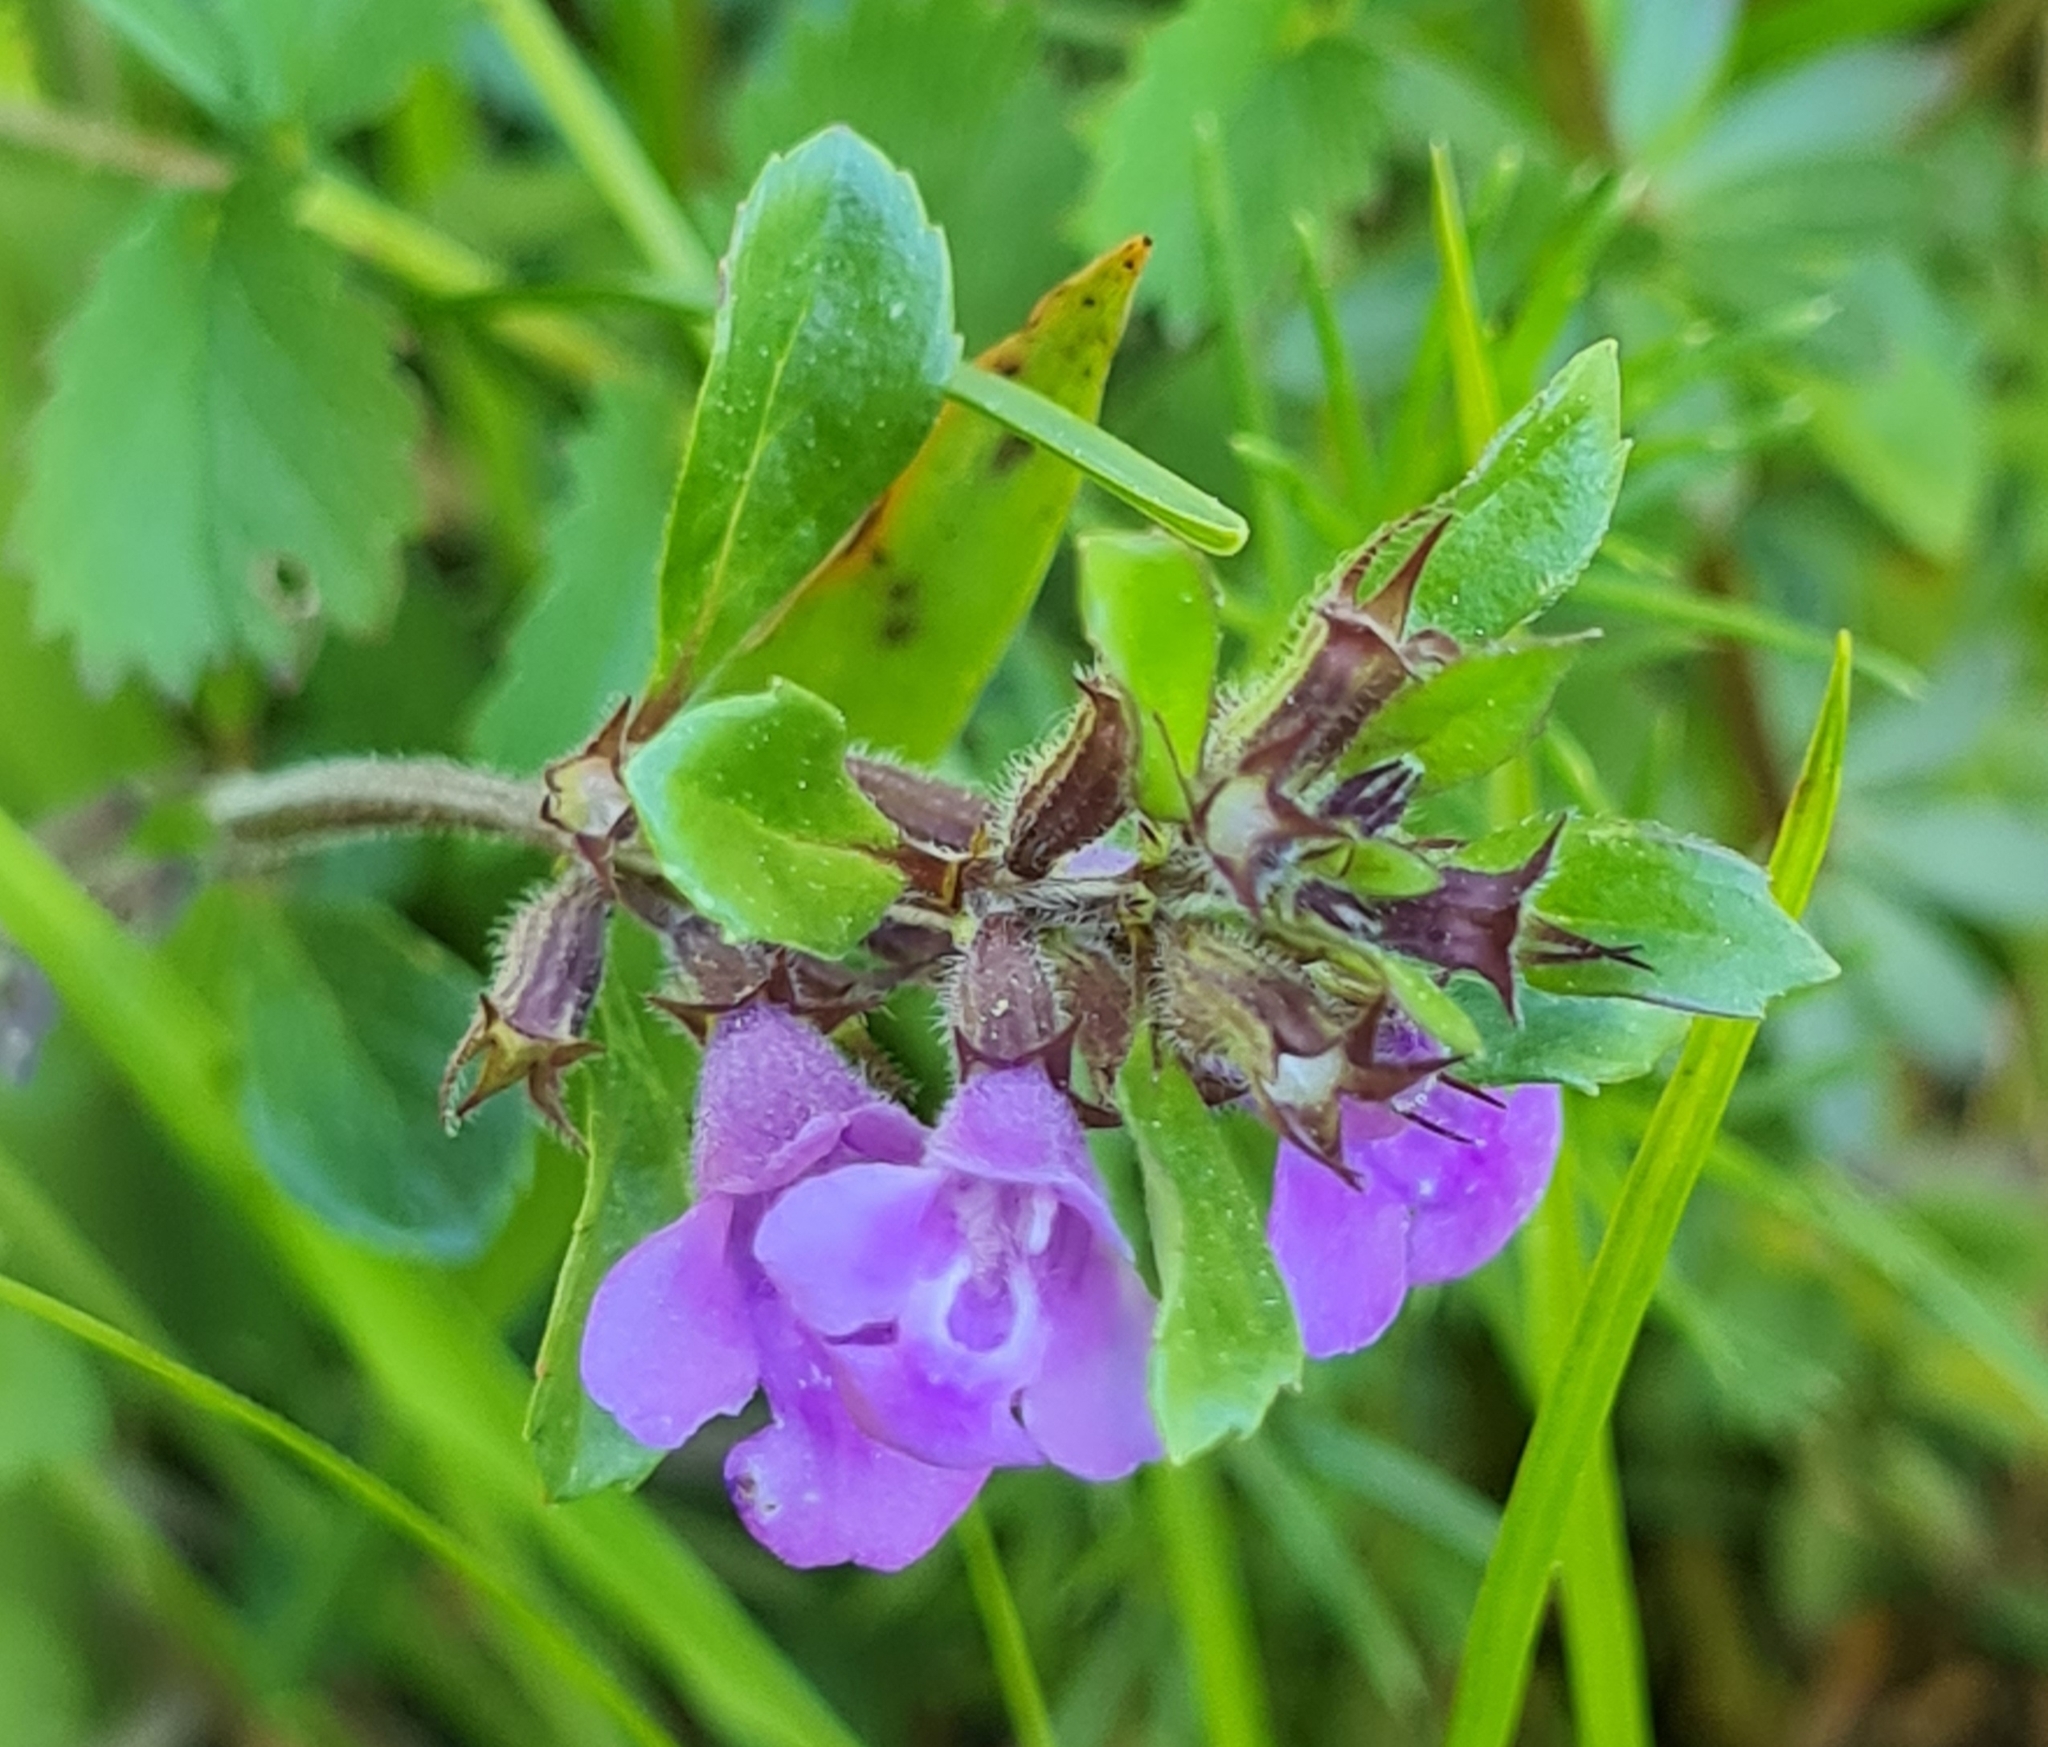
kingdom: Plantae
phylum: Tracheophyta
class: Magnoliopsida
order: Lamiales
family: Lamiaceae
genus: Clinopodium
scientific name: Clinopodium alpinum
